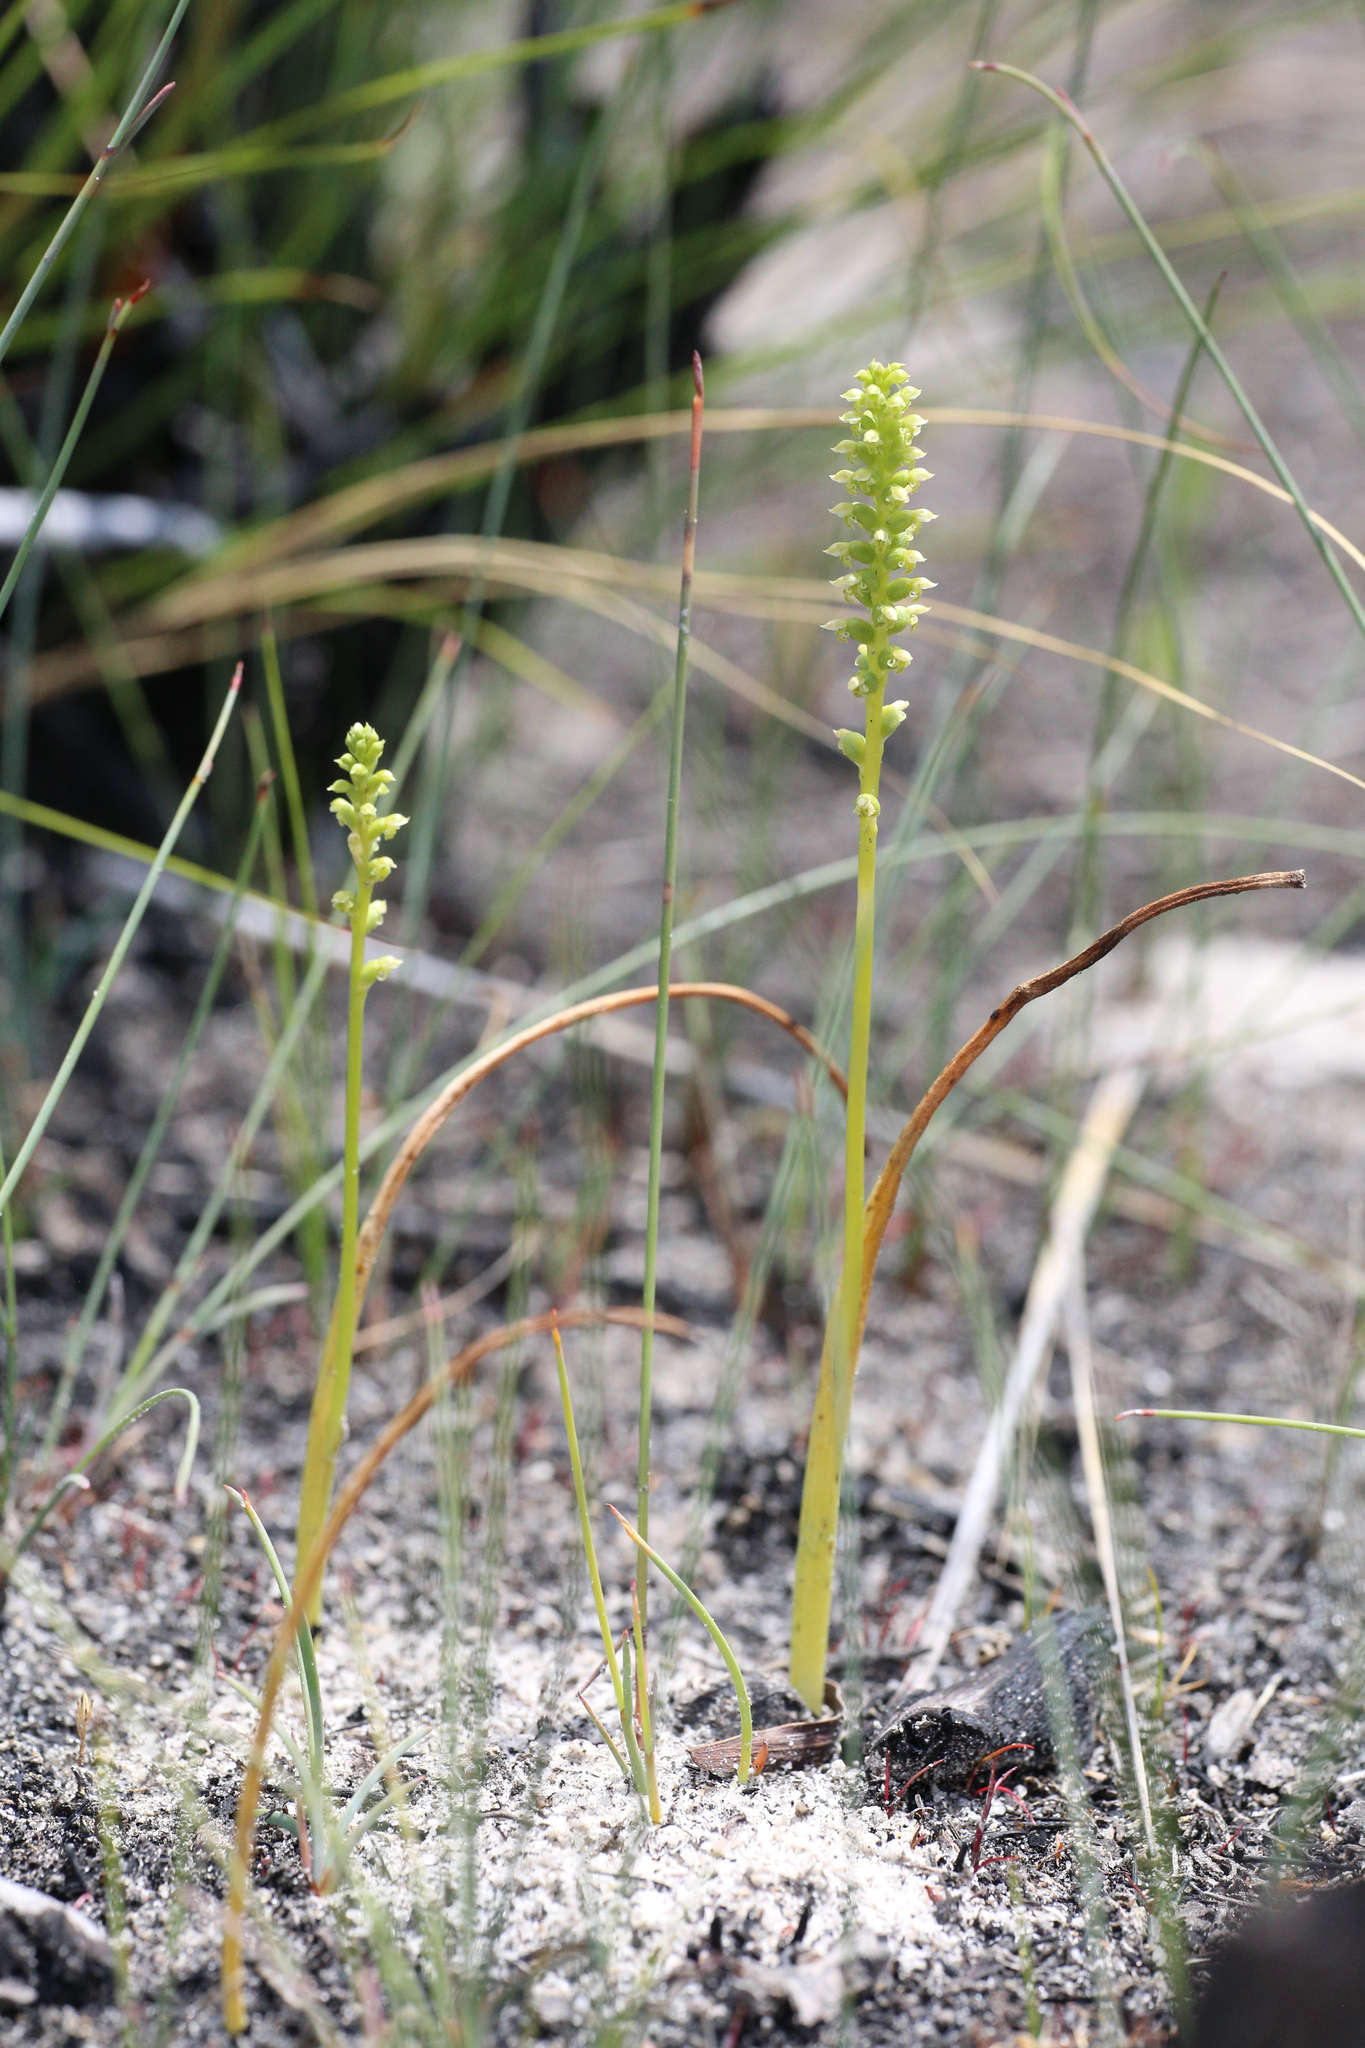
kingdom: Plantae
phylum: Tracheophyta
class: Liliopsida
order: Asparagales
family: Orchidaceae
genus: Microtis
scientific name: Microtis media
